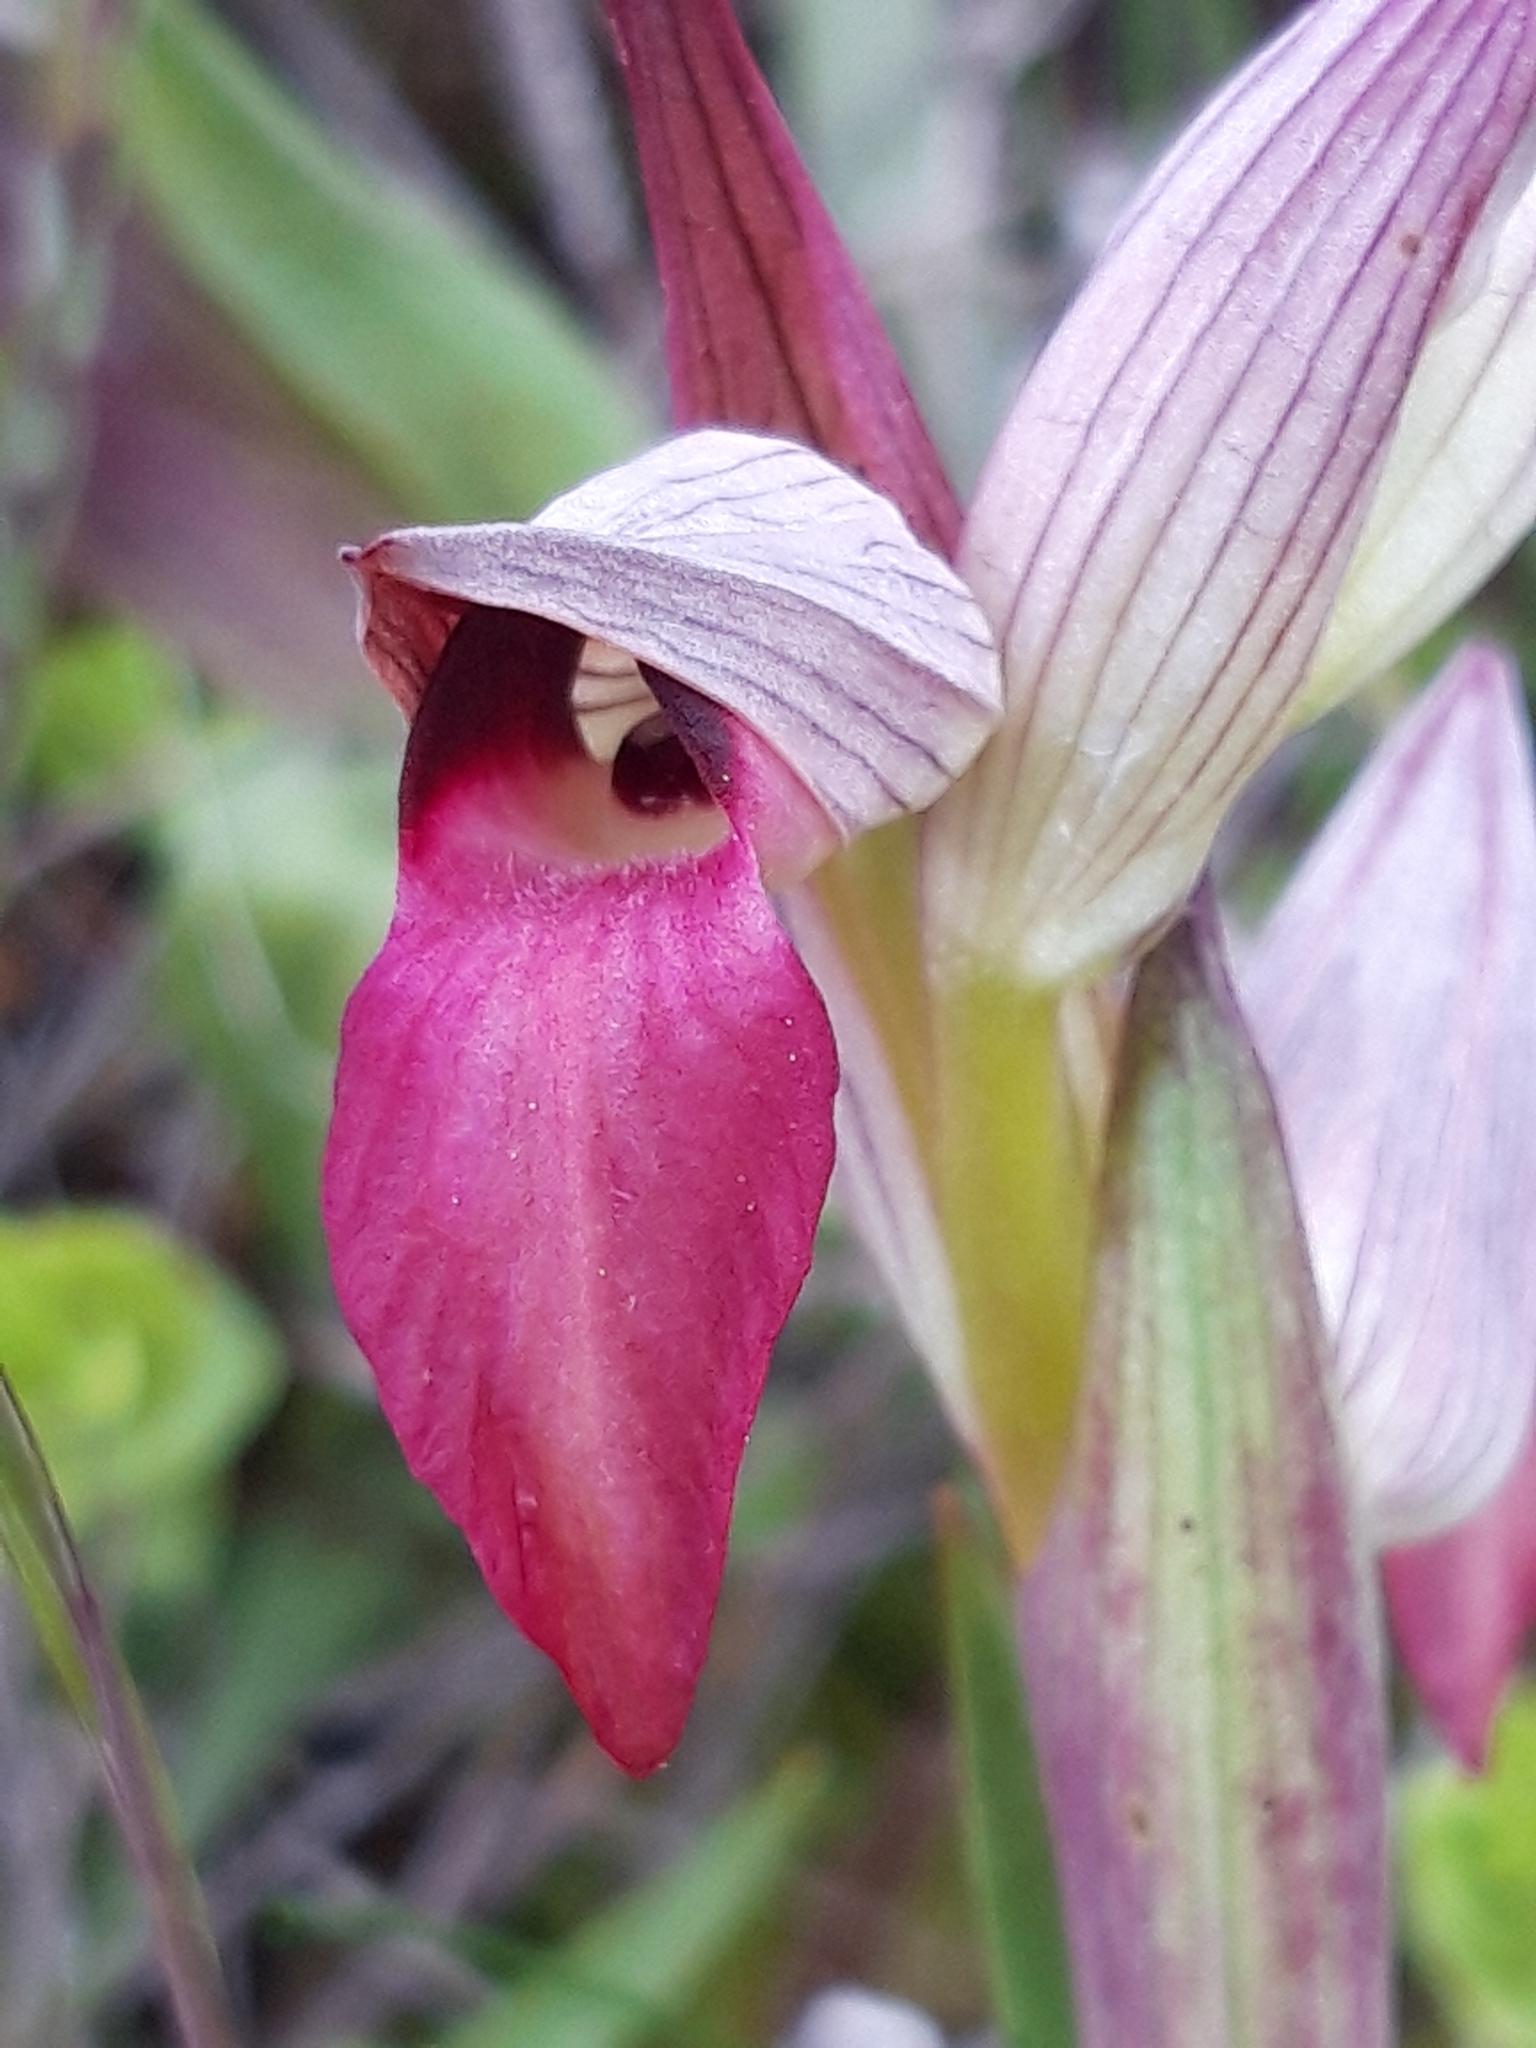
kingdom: Plantae
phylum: Tracheophyta
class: Liliopsida
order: Asparagales
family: Orchidaceae
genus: Serapias
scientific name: Serapias lingua
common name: Tongue-orchid
